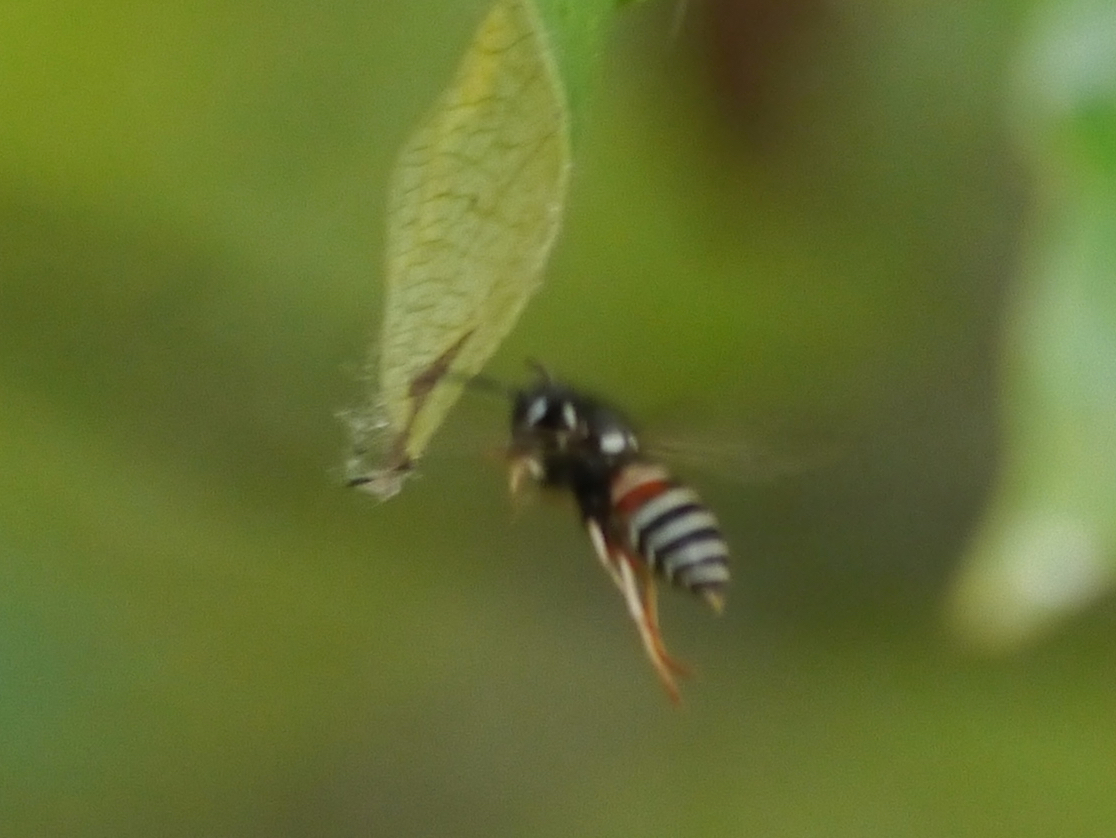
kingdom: Animalia
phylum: Arthropoda
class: Insecta
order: Hymenoptera
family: Vespidae
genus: Vespula
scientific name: Vespula intermedia
